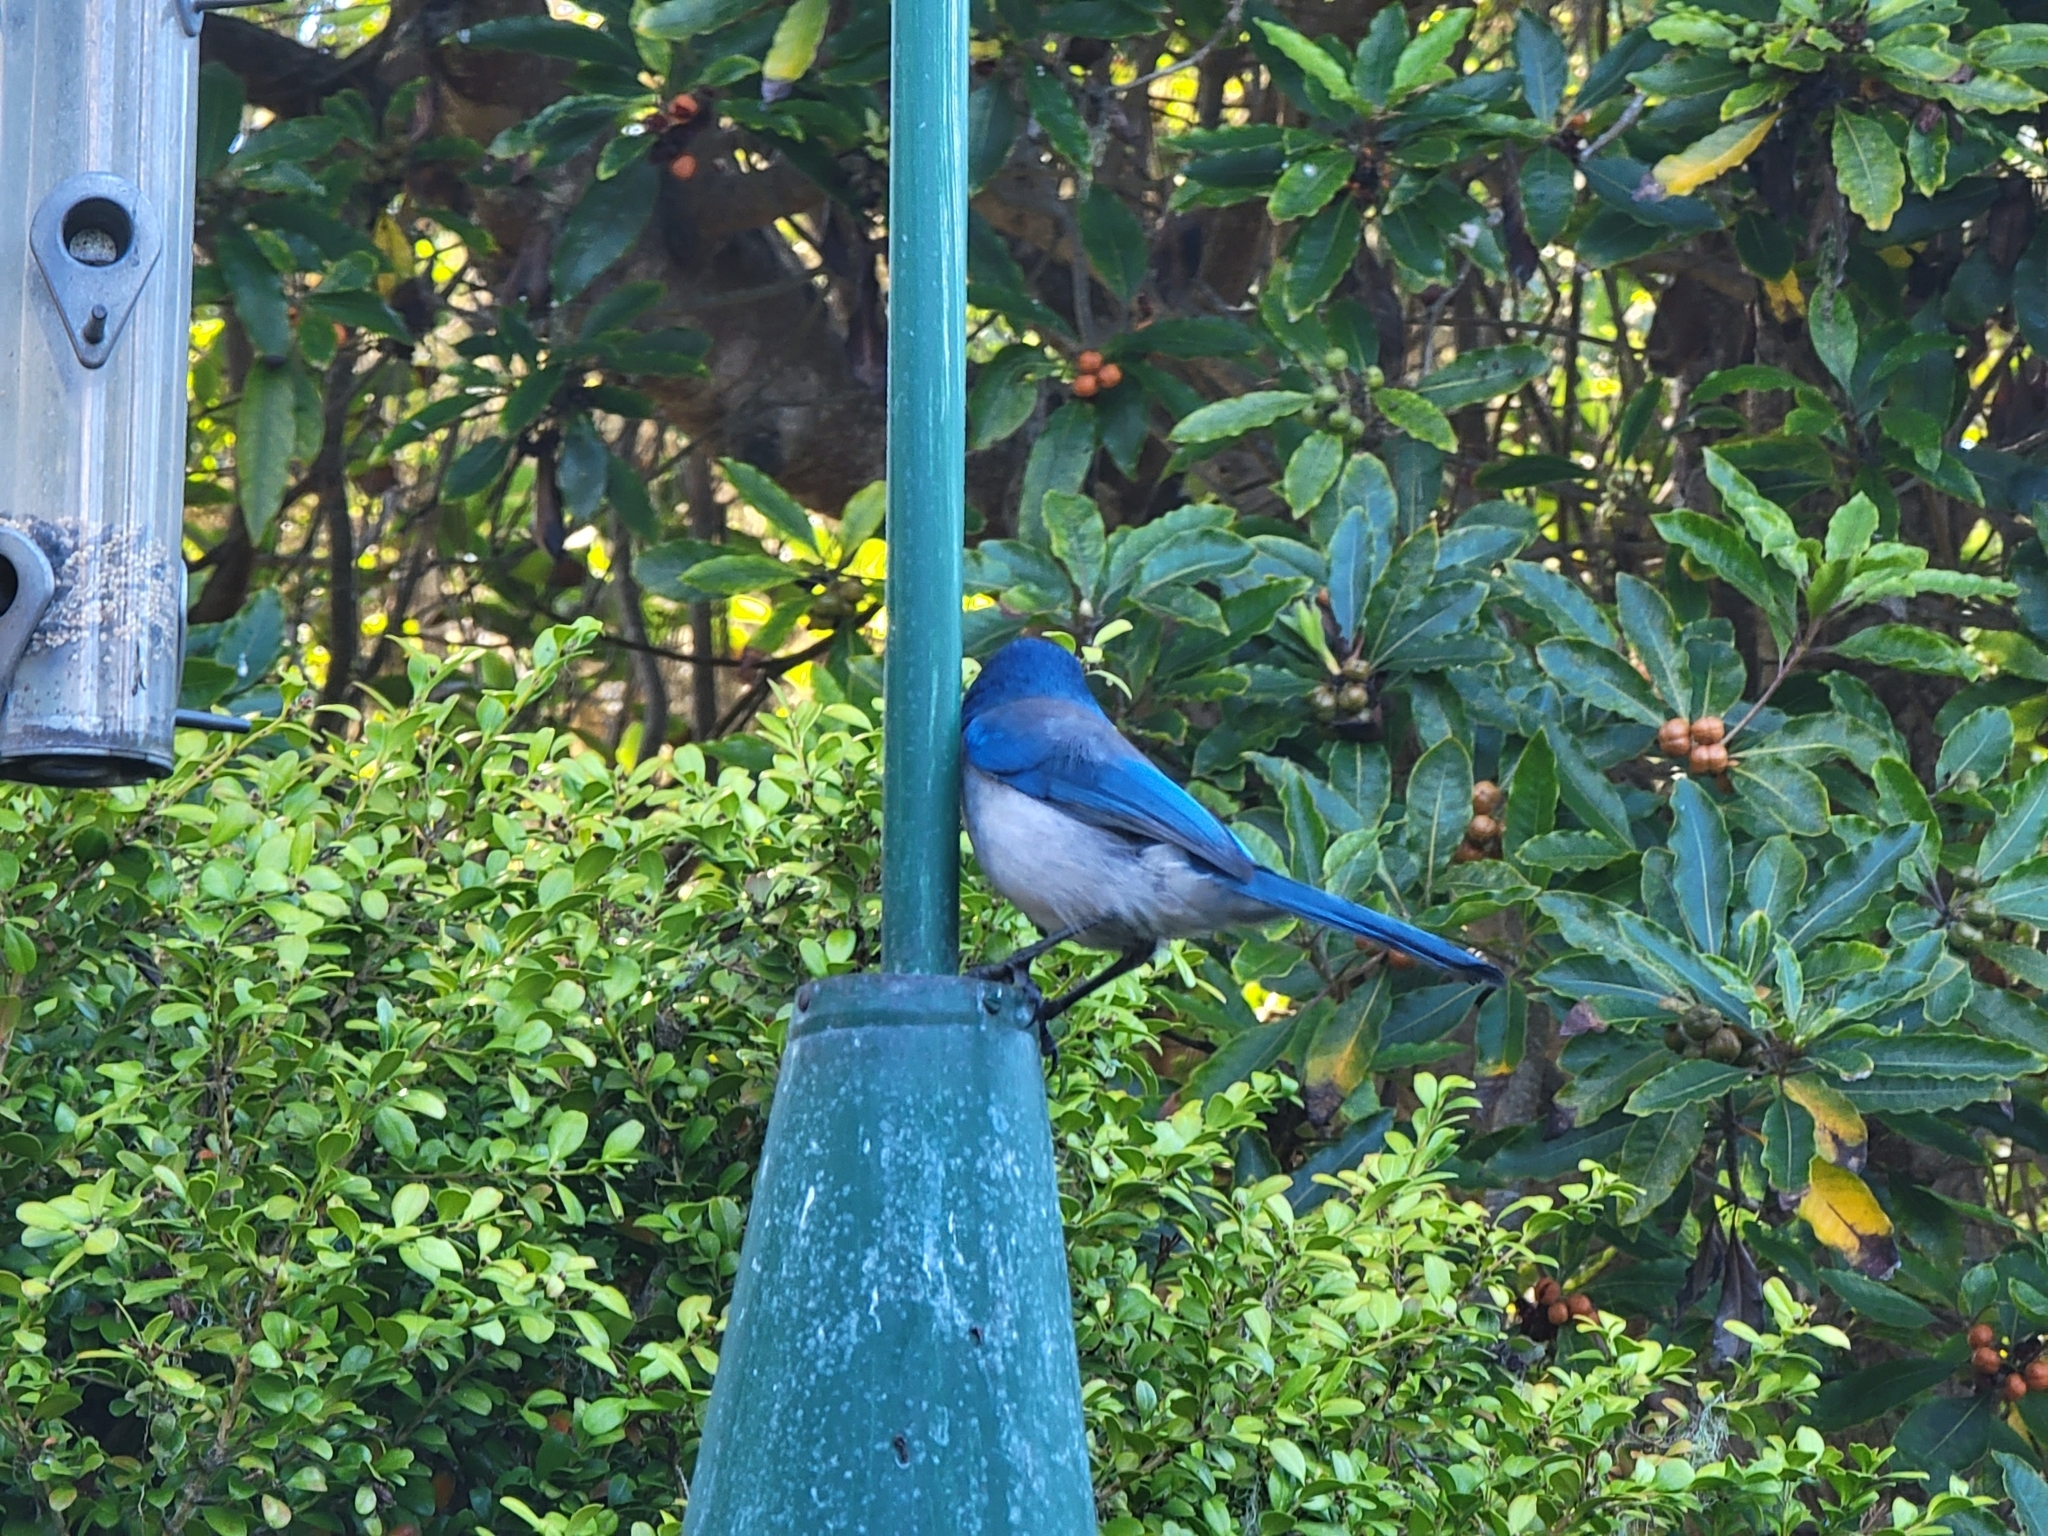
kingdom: Animalia
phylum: Chordata
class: Aves
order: Passeriformes
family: Corvidae
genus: Aphelocoma
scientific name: Aphelocoma californica
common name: California scrub-jay
